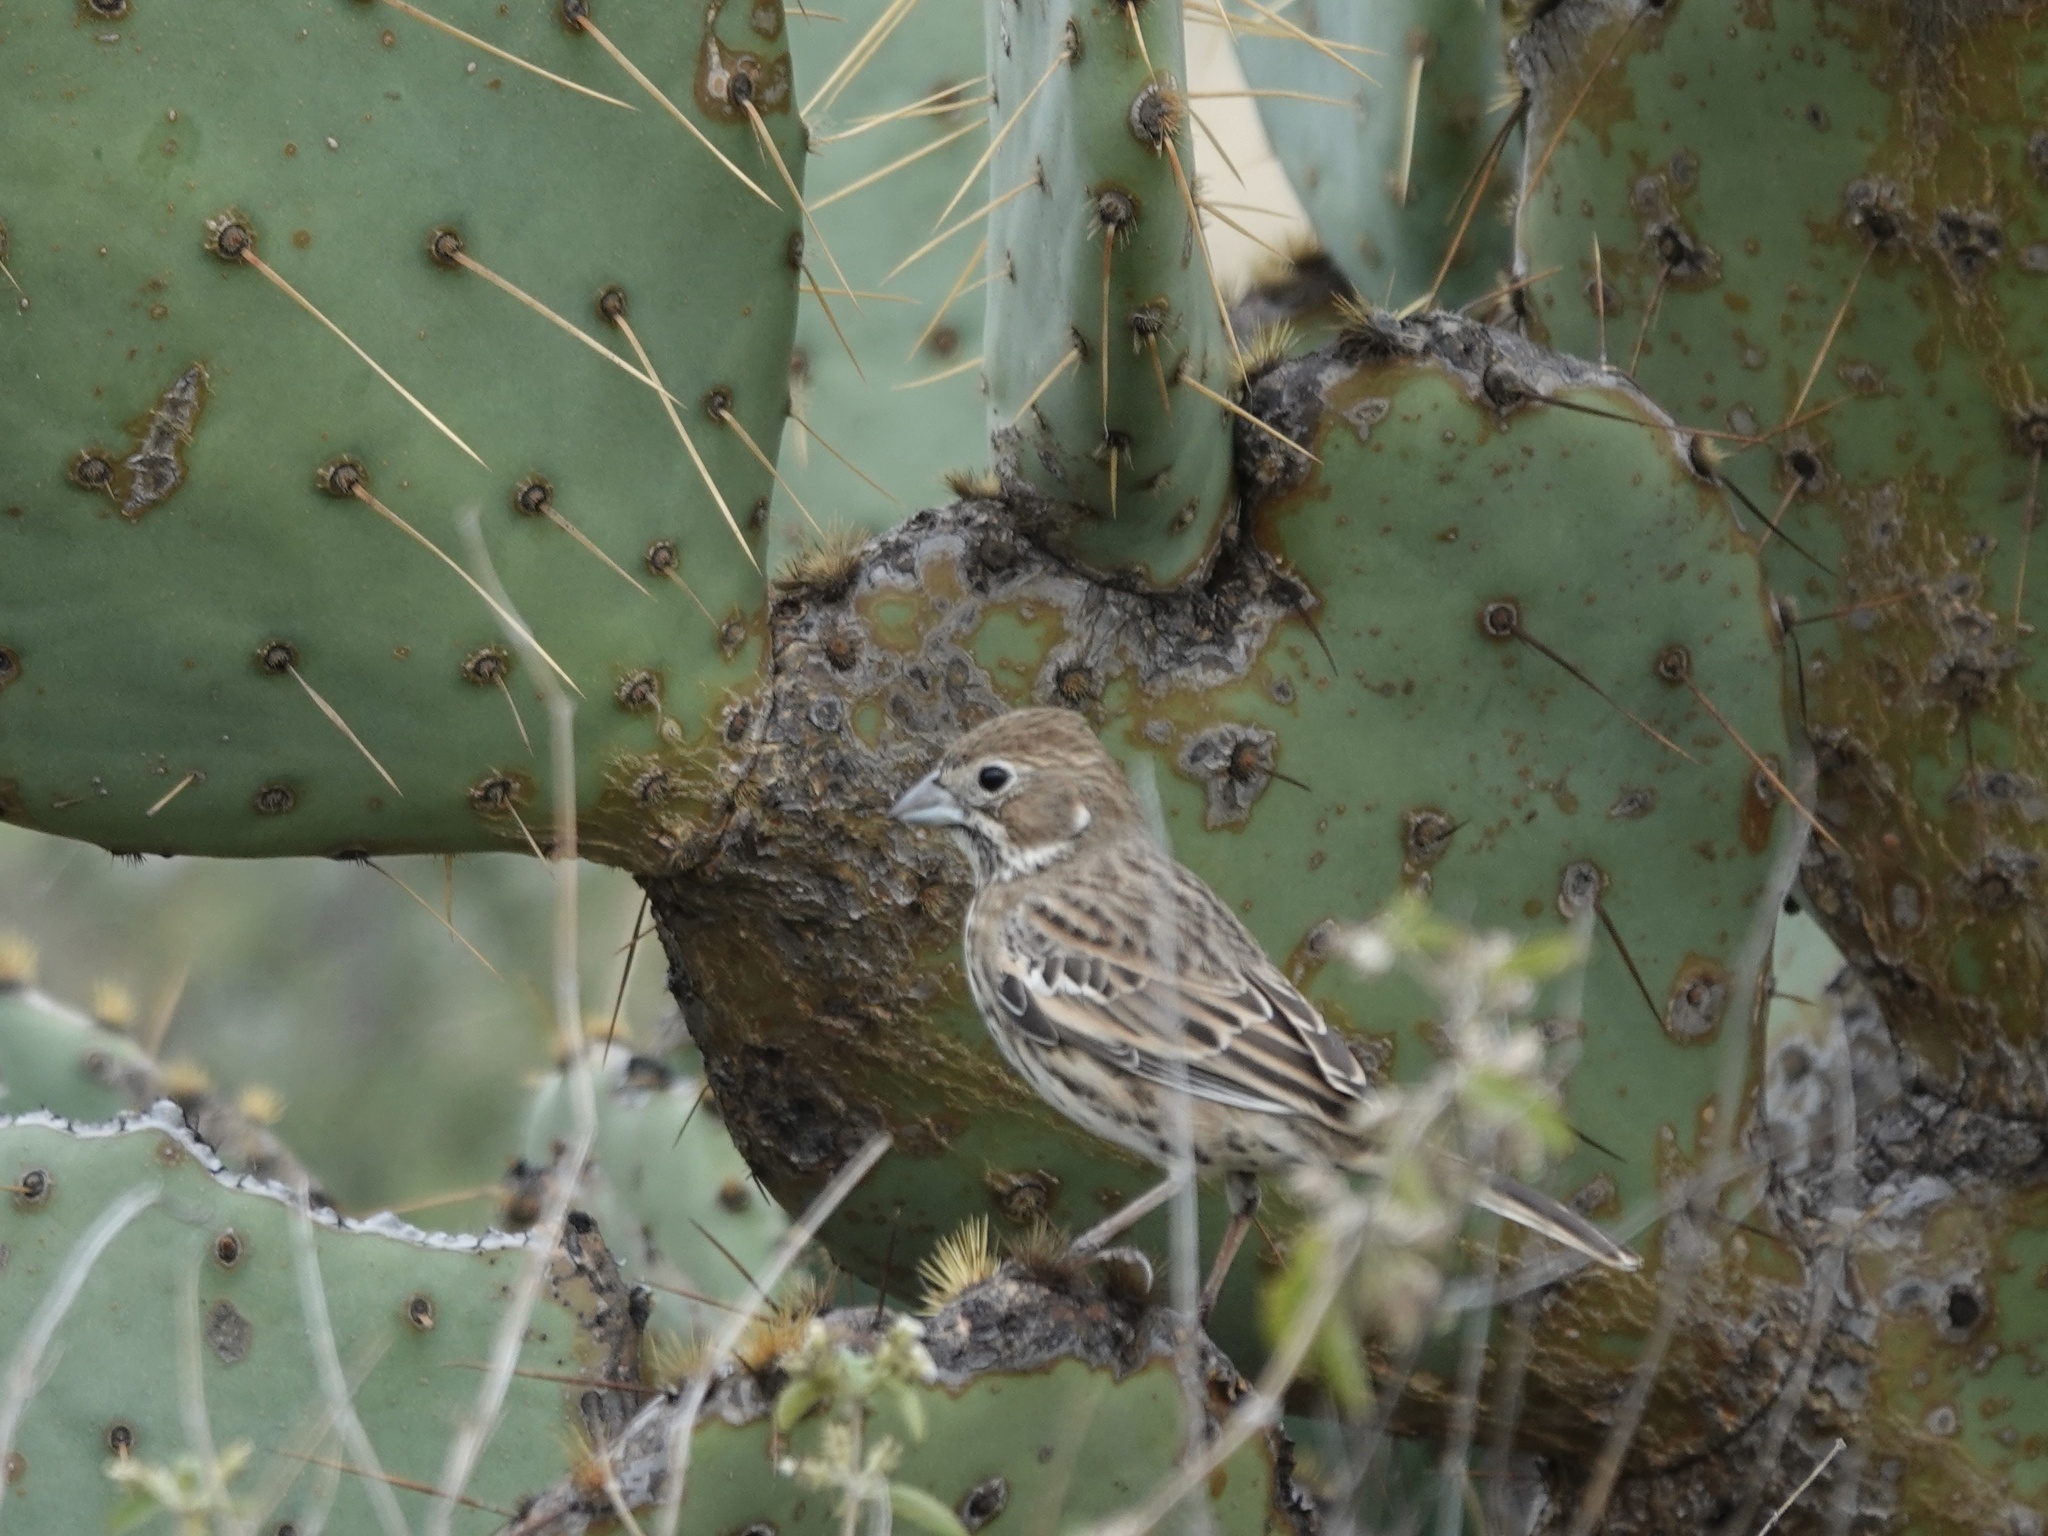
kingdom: Animalia
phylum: Chordata
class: Aves
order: Passeriformes
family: Passerellidae
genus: Calamospiza
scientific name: Calamospiza melanocorys
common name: Lark bunting
